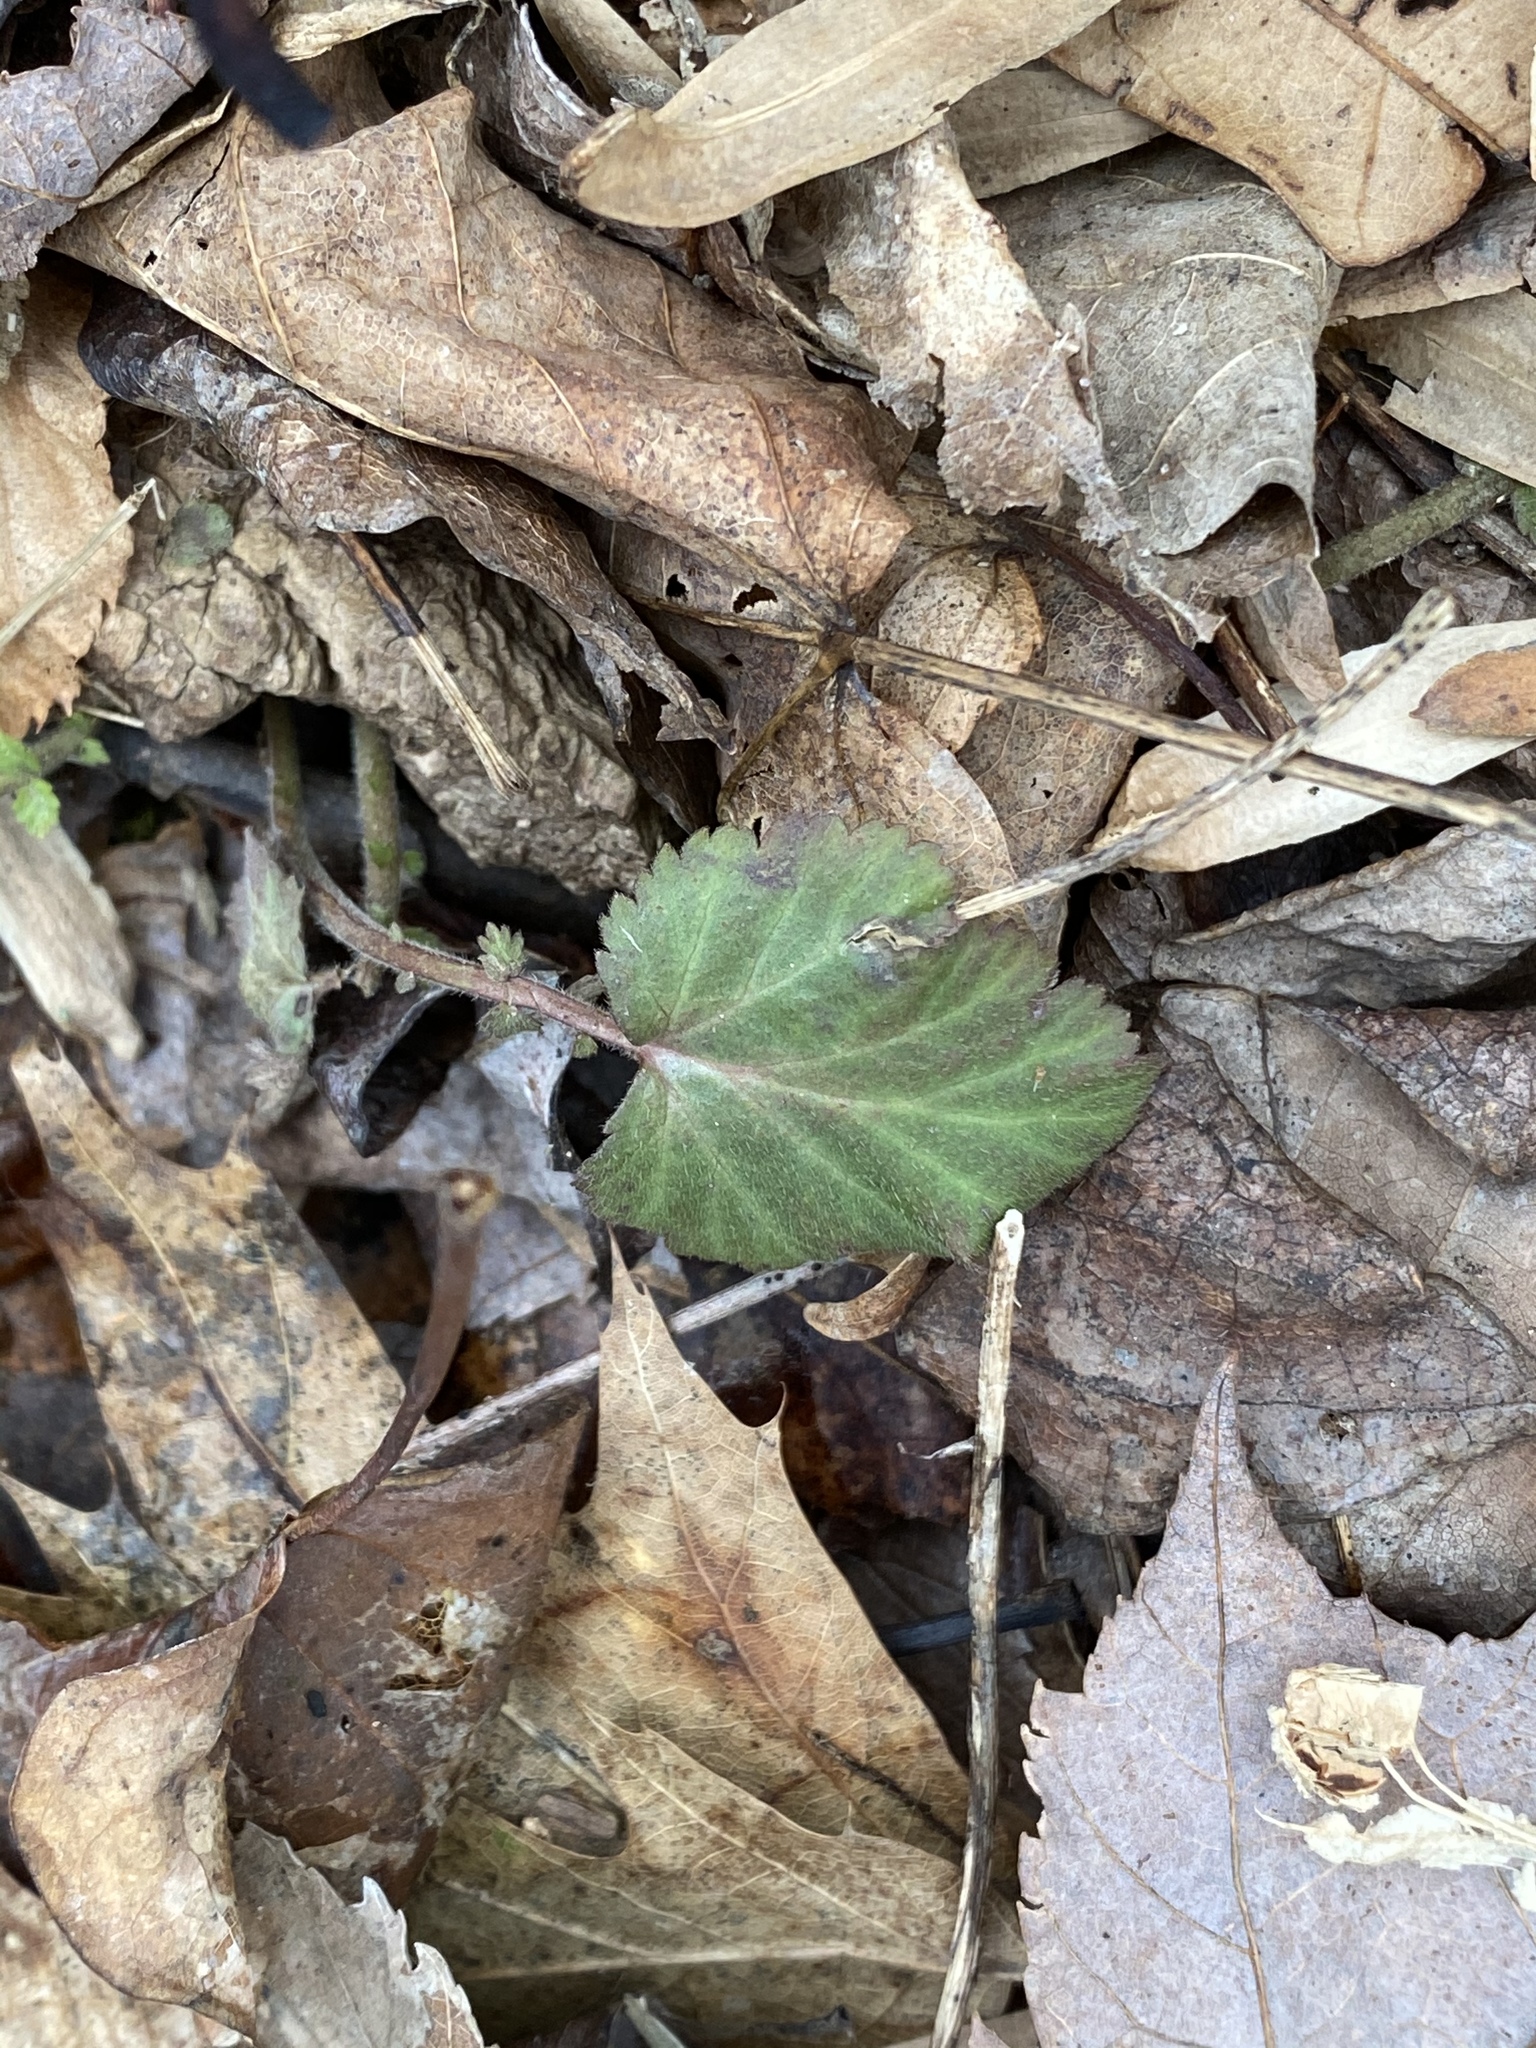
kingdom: Plantae
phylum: Tracheophyta
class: Magnoliopsida
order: Rosales
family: Rosaceae
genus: Geum
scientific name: Geum canadense
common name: White avens
